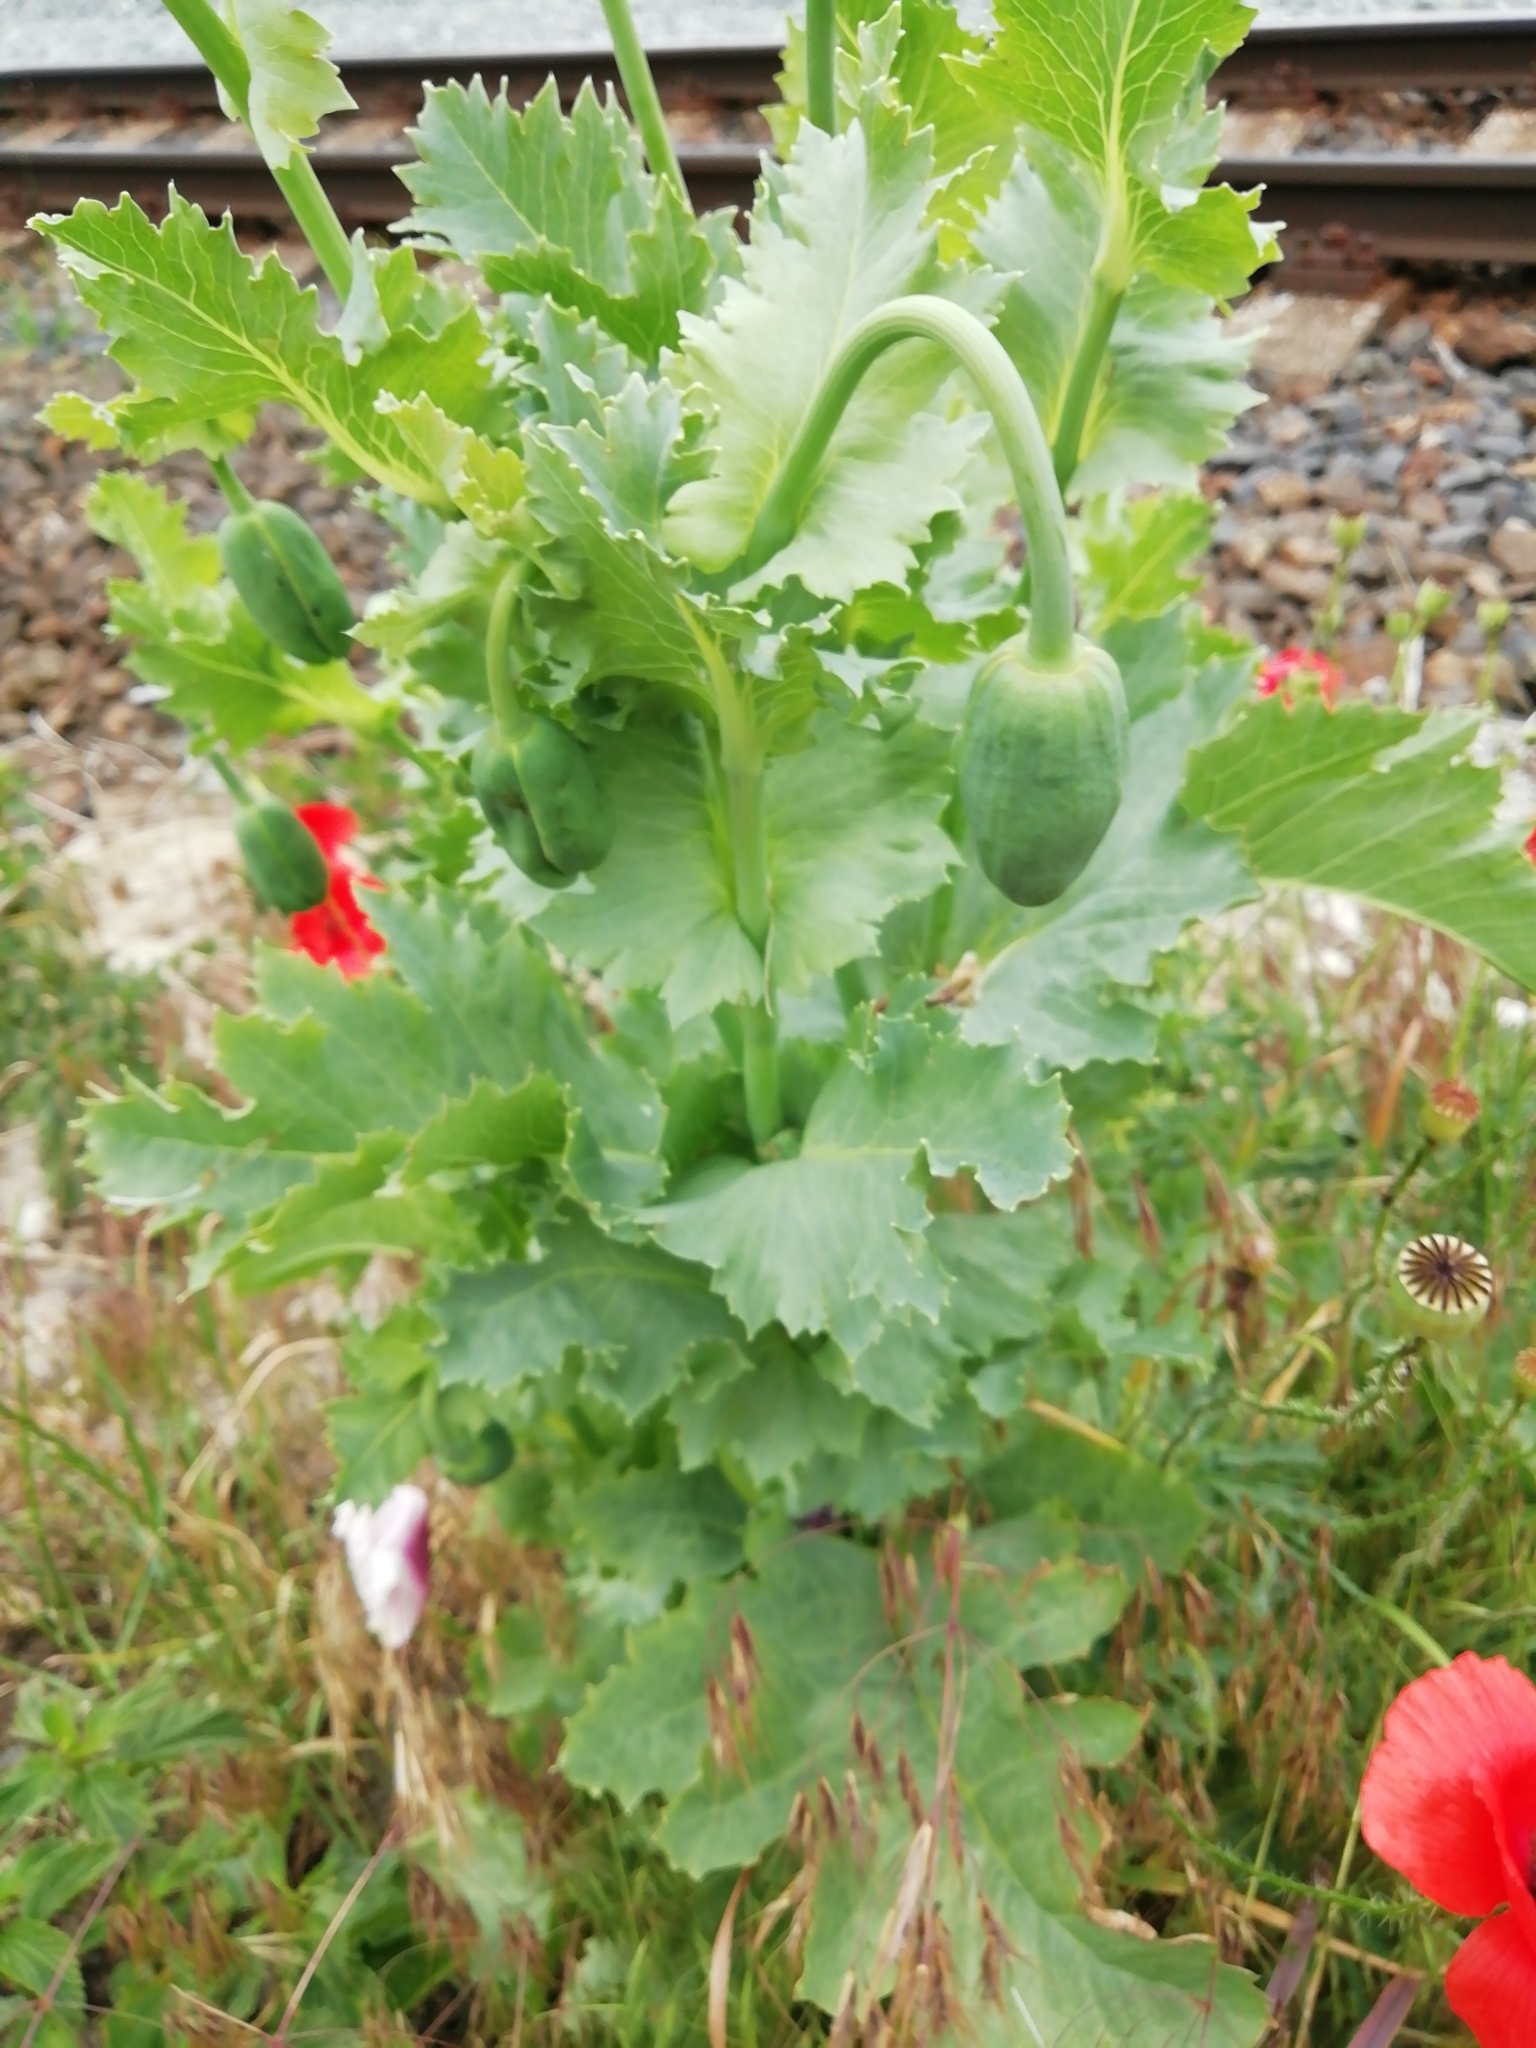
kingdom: Plantae
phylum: Tracheophyta
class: Magnoliopsida
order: Ranunculales
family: Papaveraceae
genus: Papaver
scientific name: Papaver somniferum
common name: Opium poppy
